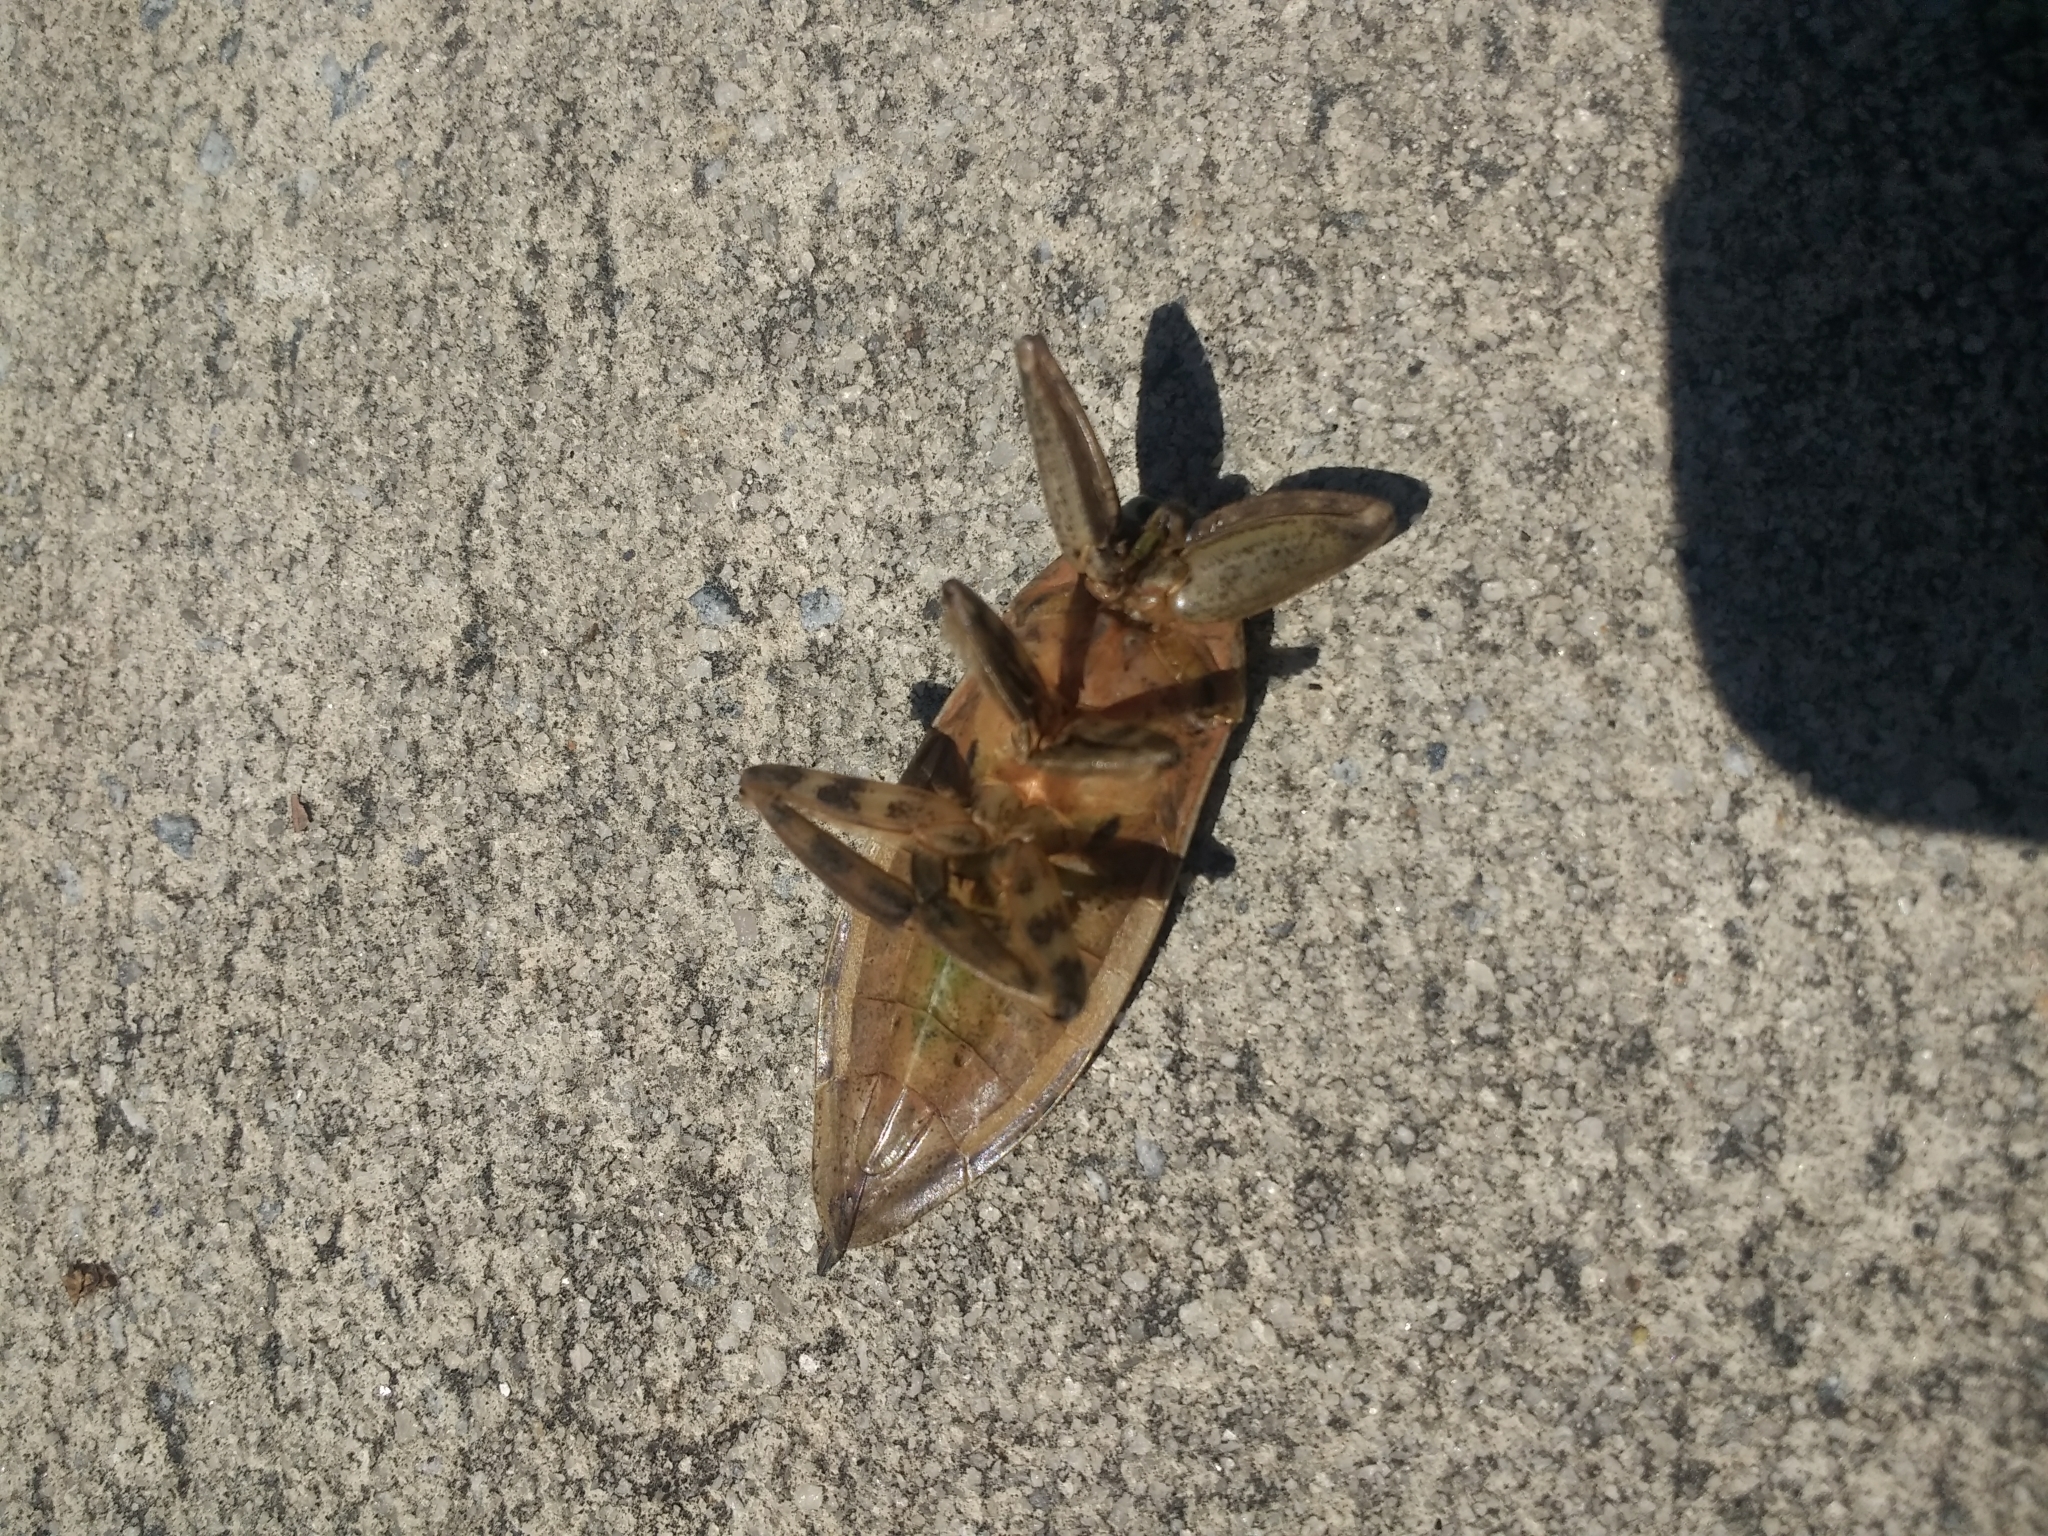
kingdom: Animalia
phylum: Arthropoda
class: Insecta
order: Hemiptera
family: Belostomatidae
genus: Lethocerus
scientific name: Lethocerus uhleri
